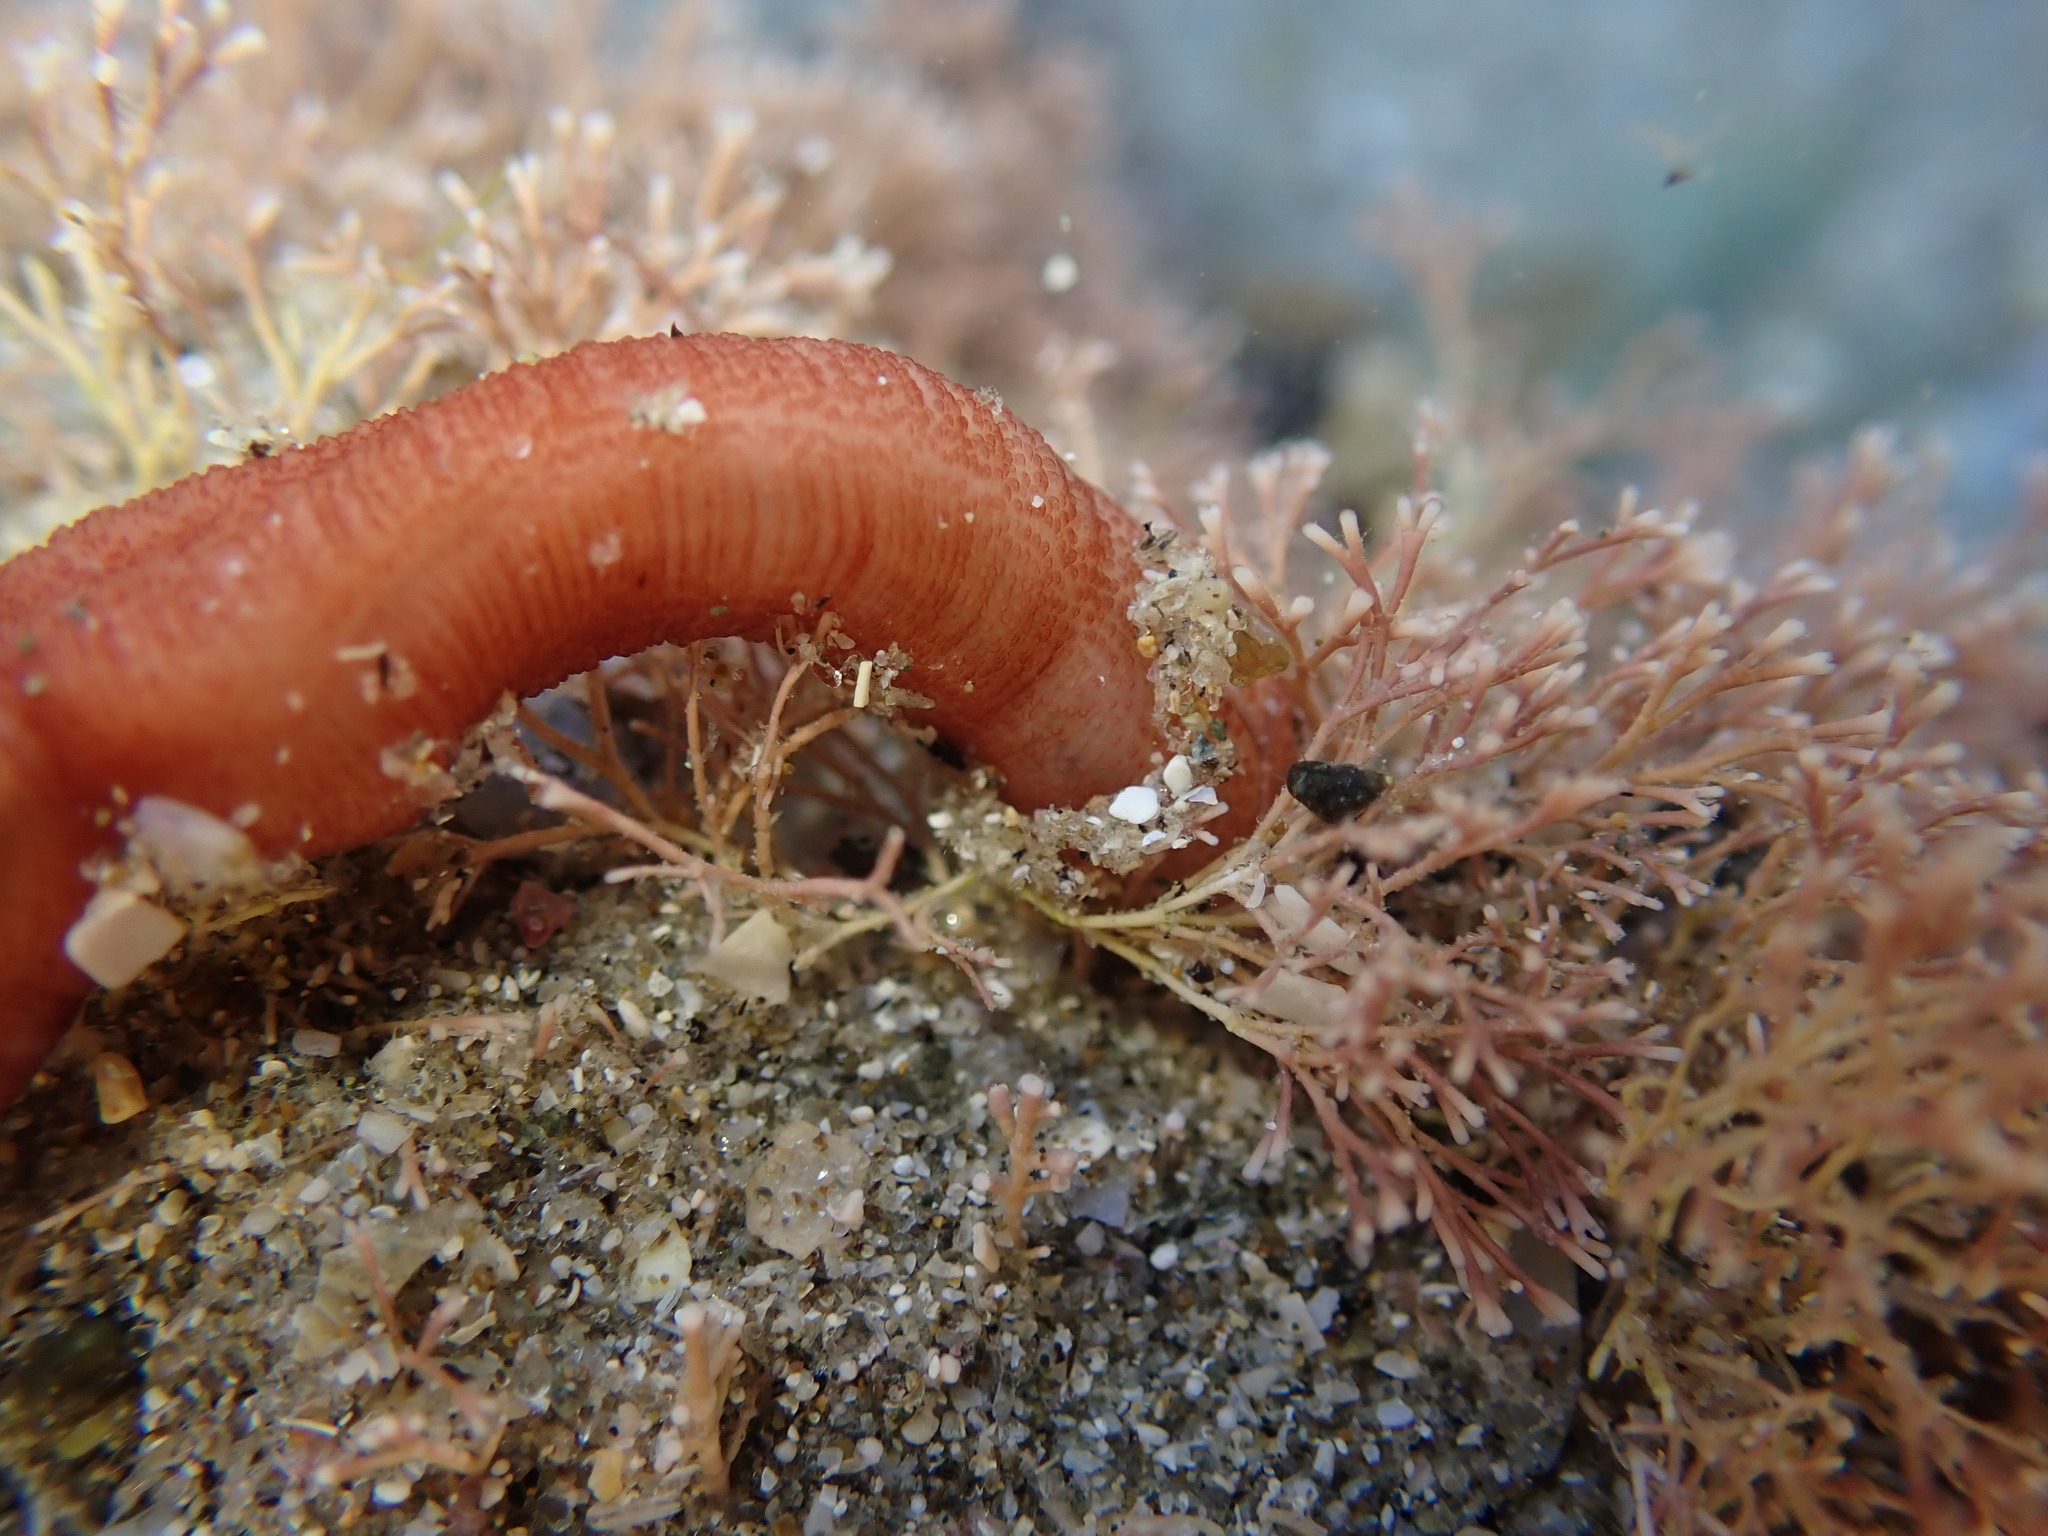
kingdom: Animalia
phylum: Echinodermata
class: Holothuroidea
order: Apodida
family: Chiridotidae
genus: Taeniogyrus
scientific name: Taeniogyrus dunedinensis
